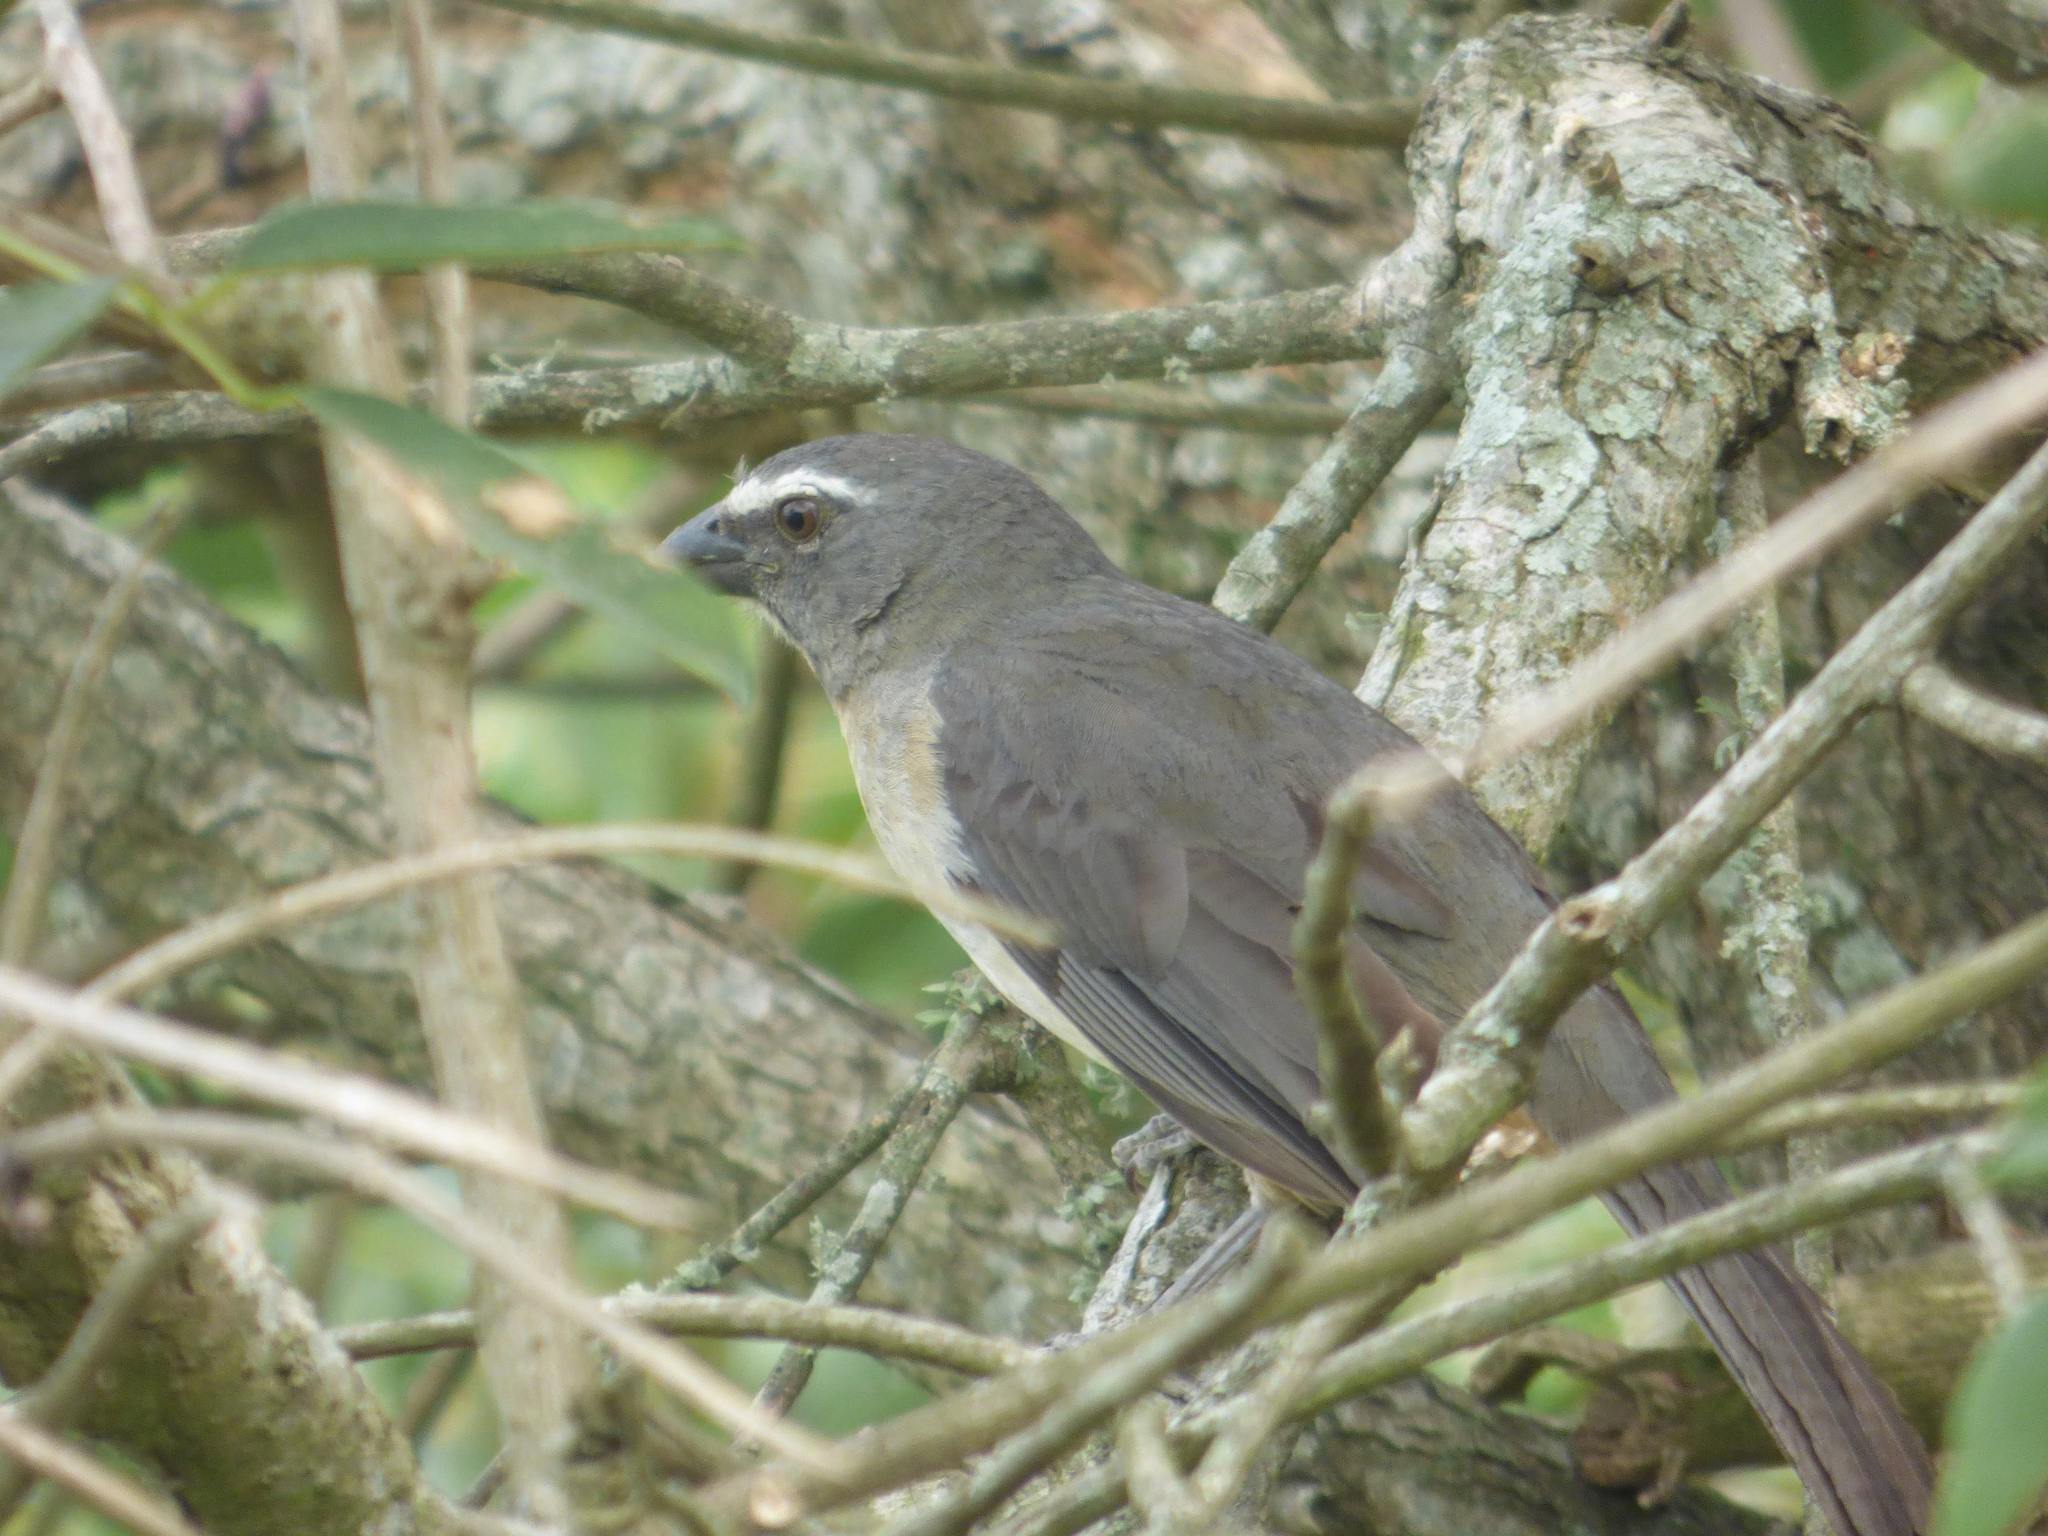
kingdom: Animalia
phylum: Chordata
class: Aves
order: Passeriformes
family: Thraupidae
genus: Saltator
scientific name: Saltator coerulescens
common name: Grayish saltator
